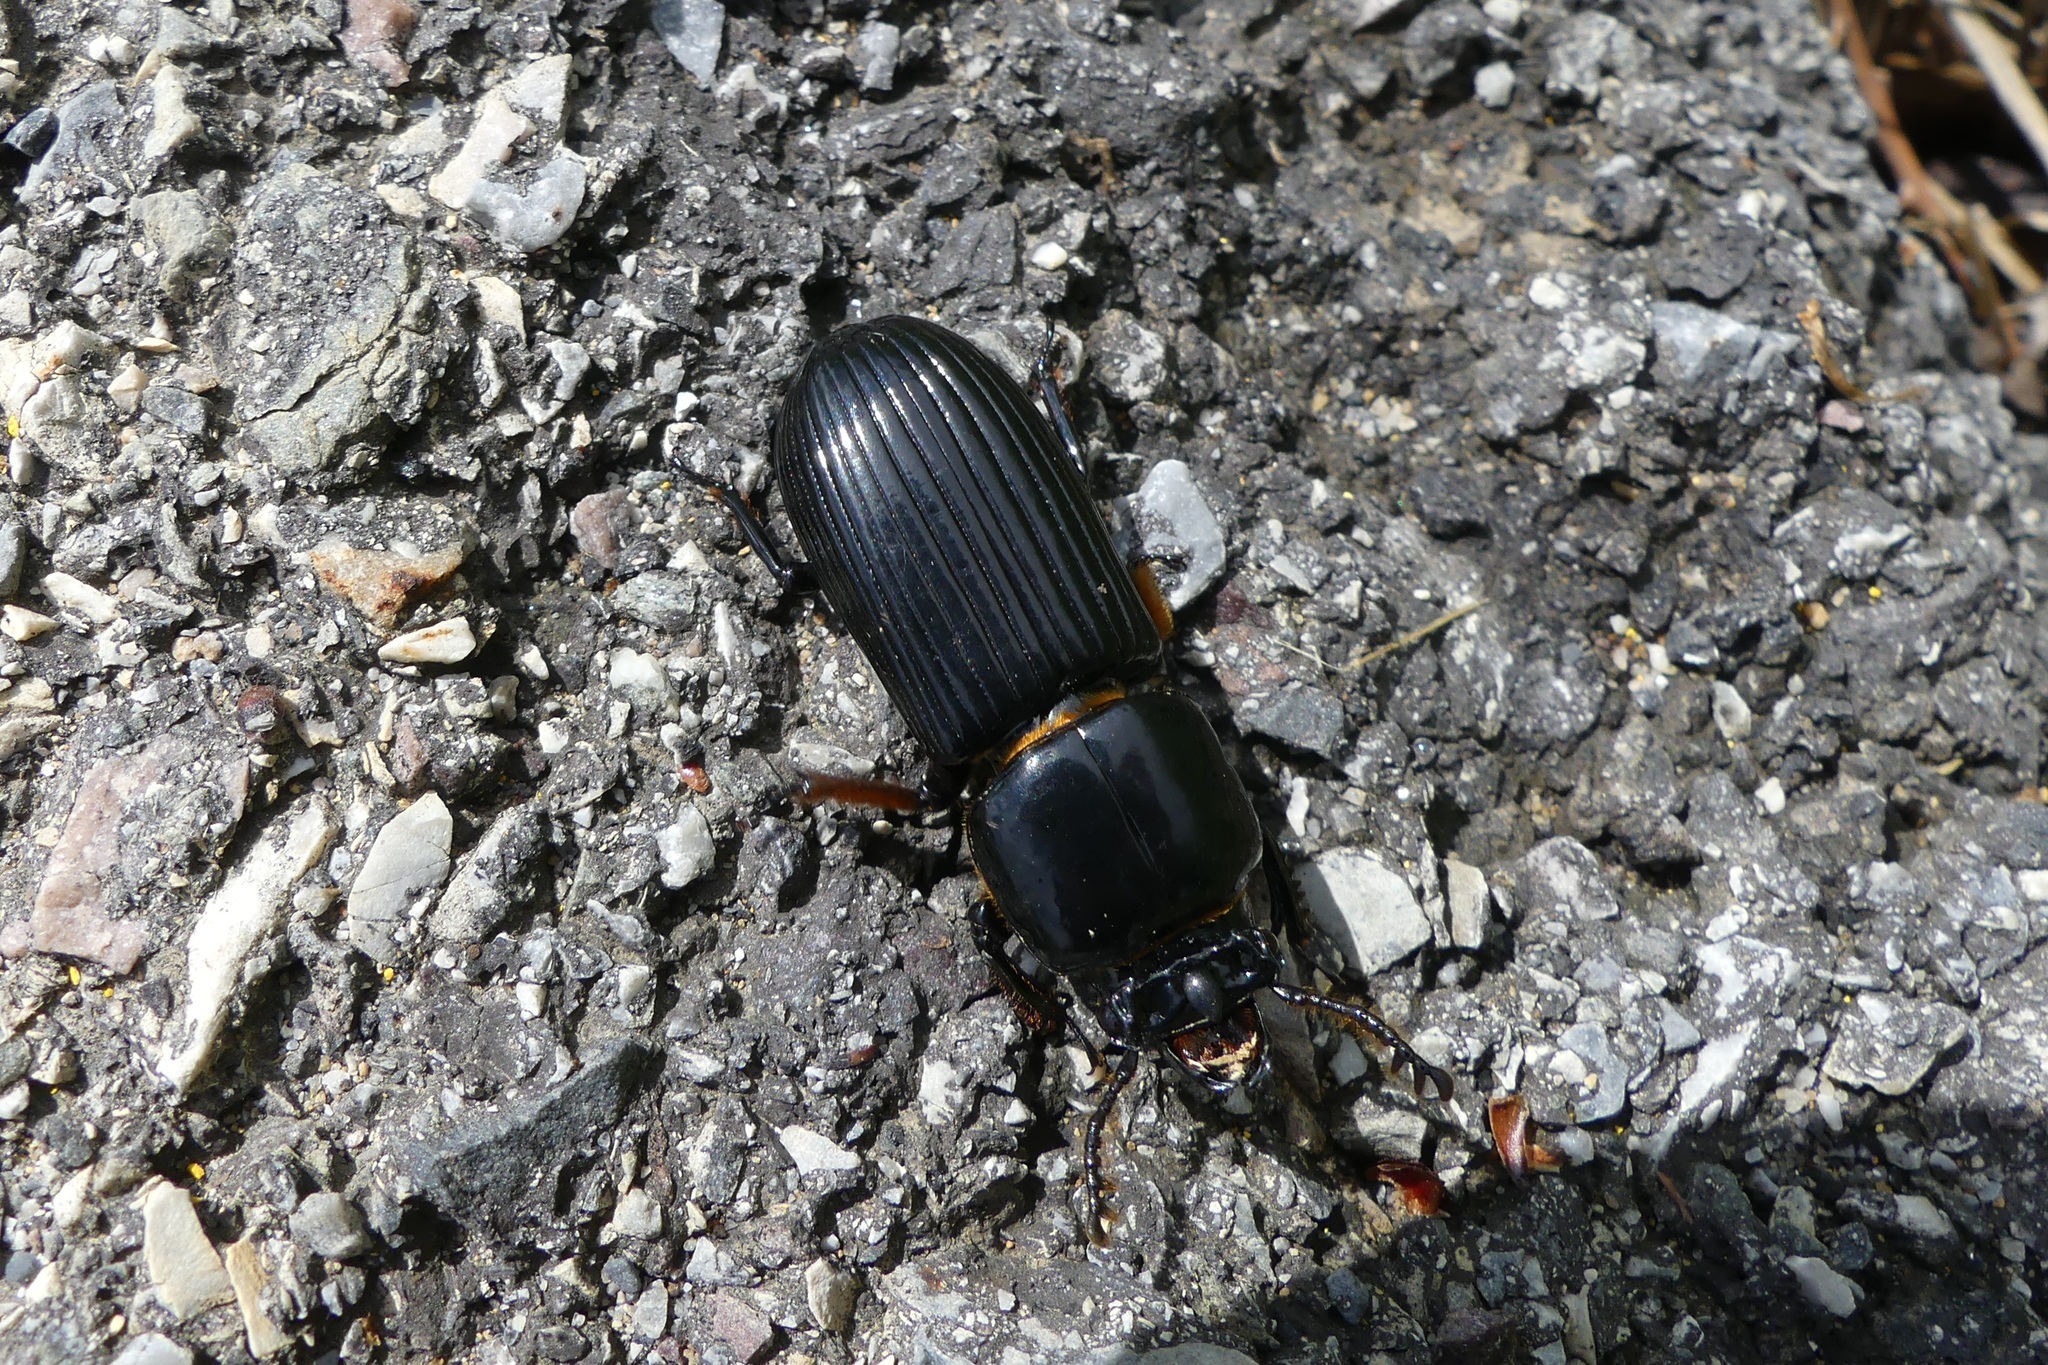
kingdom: Animalia
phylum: Arthropoda
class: Insecta
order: Coleoptera
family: Passalidae
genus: Odontotaenius
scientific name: Odontotaenius disjunctus
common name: Patent leather beetle
